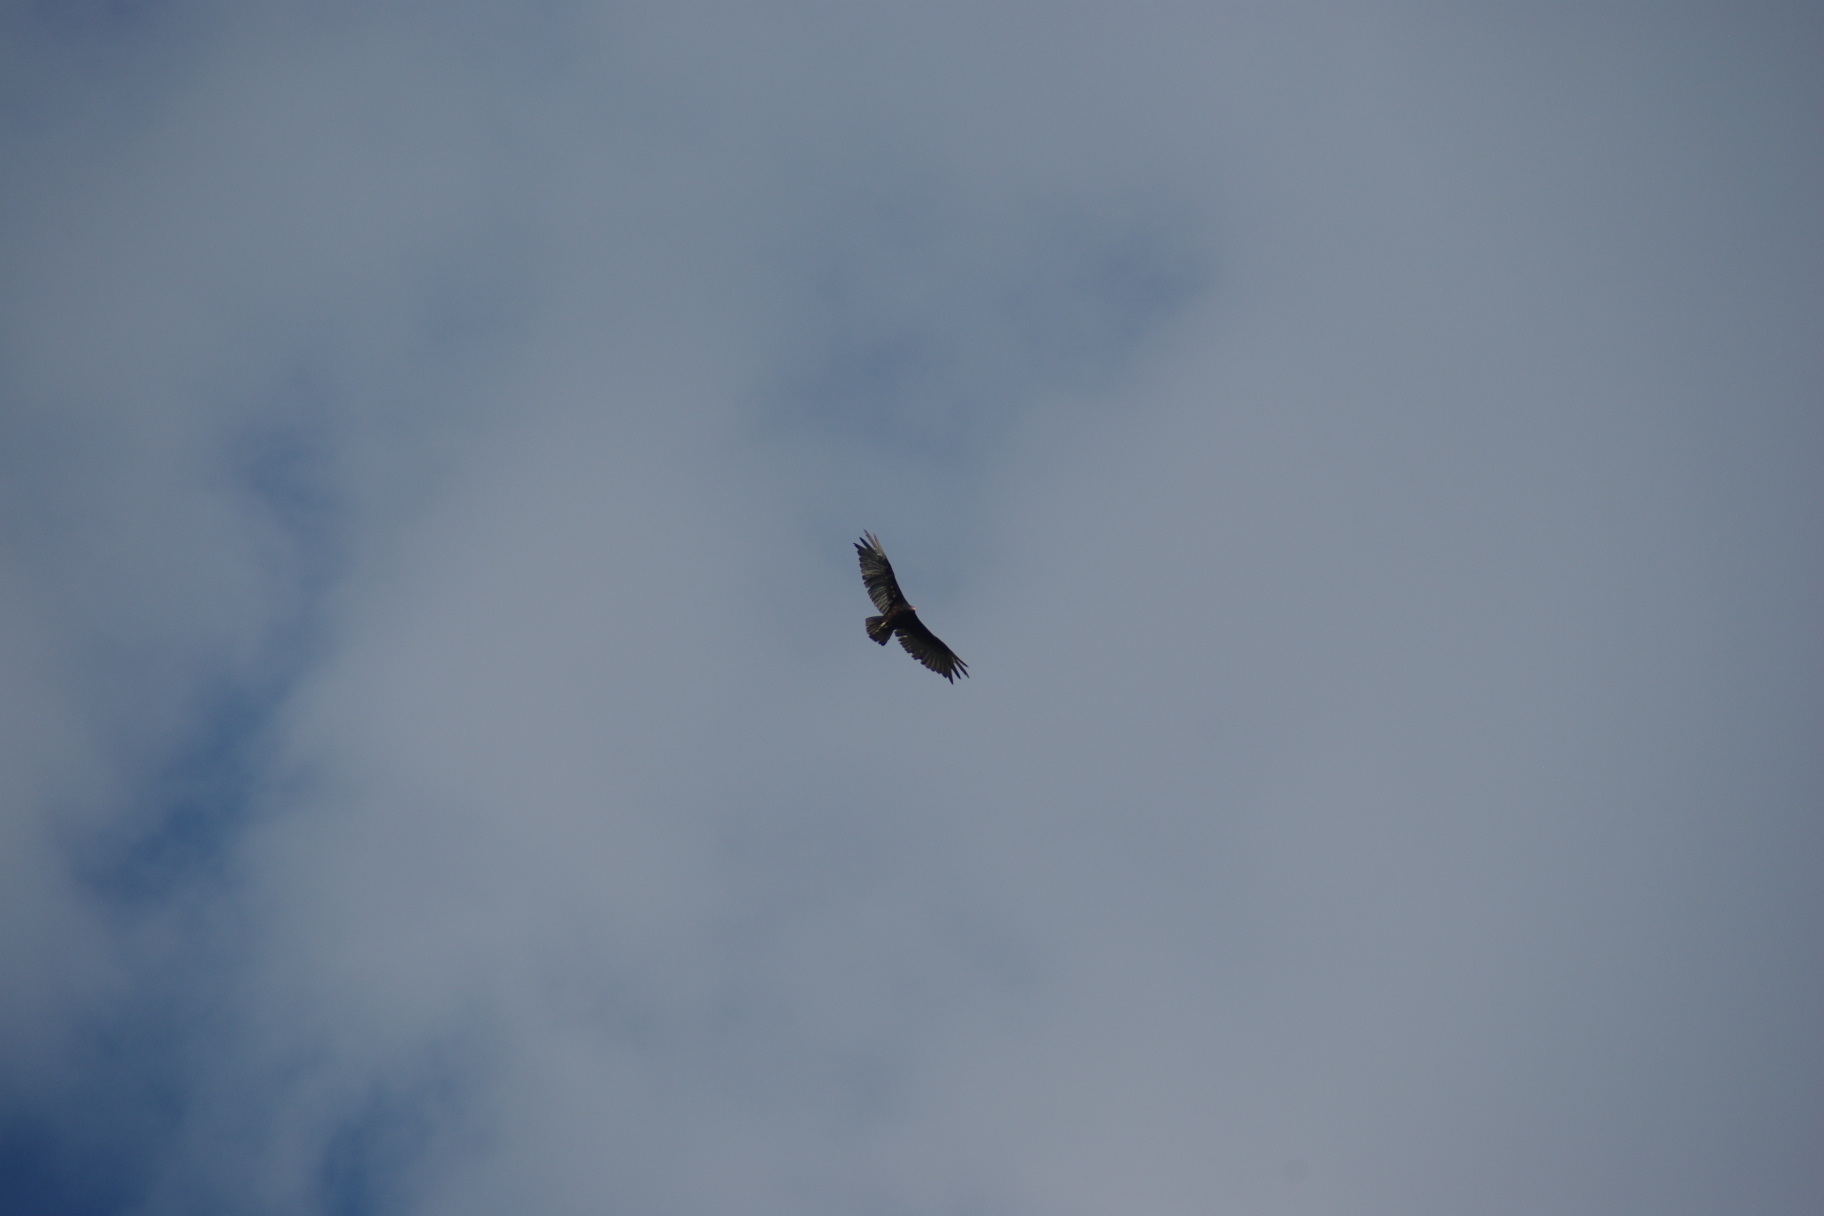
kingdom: Animalia
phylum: Chordata
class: Aves
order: Accipitriformes
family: Cathartidae
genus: Cathartes
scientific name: Cathartes aura
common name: Turkey vulture
